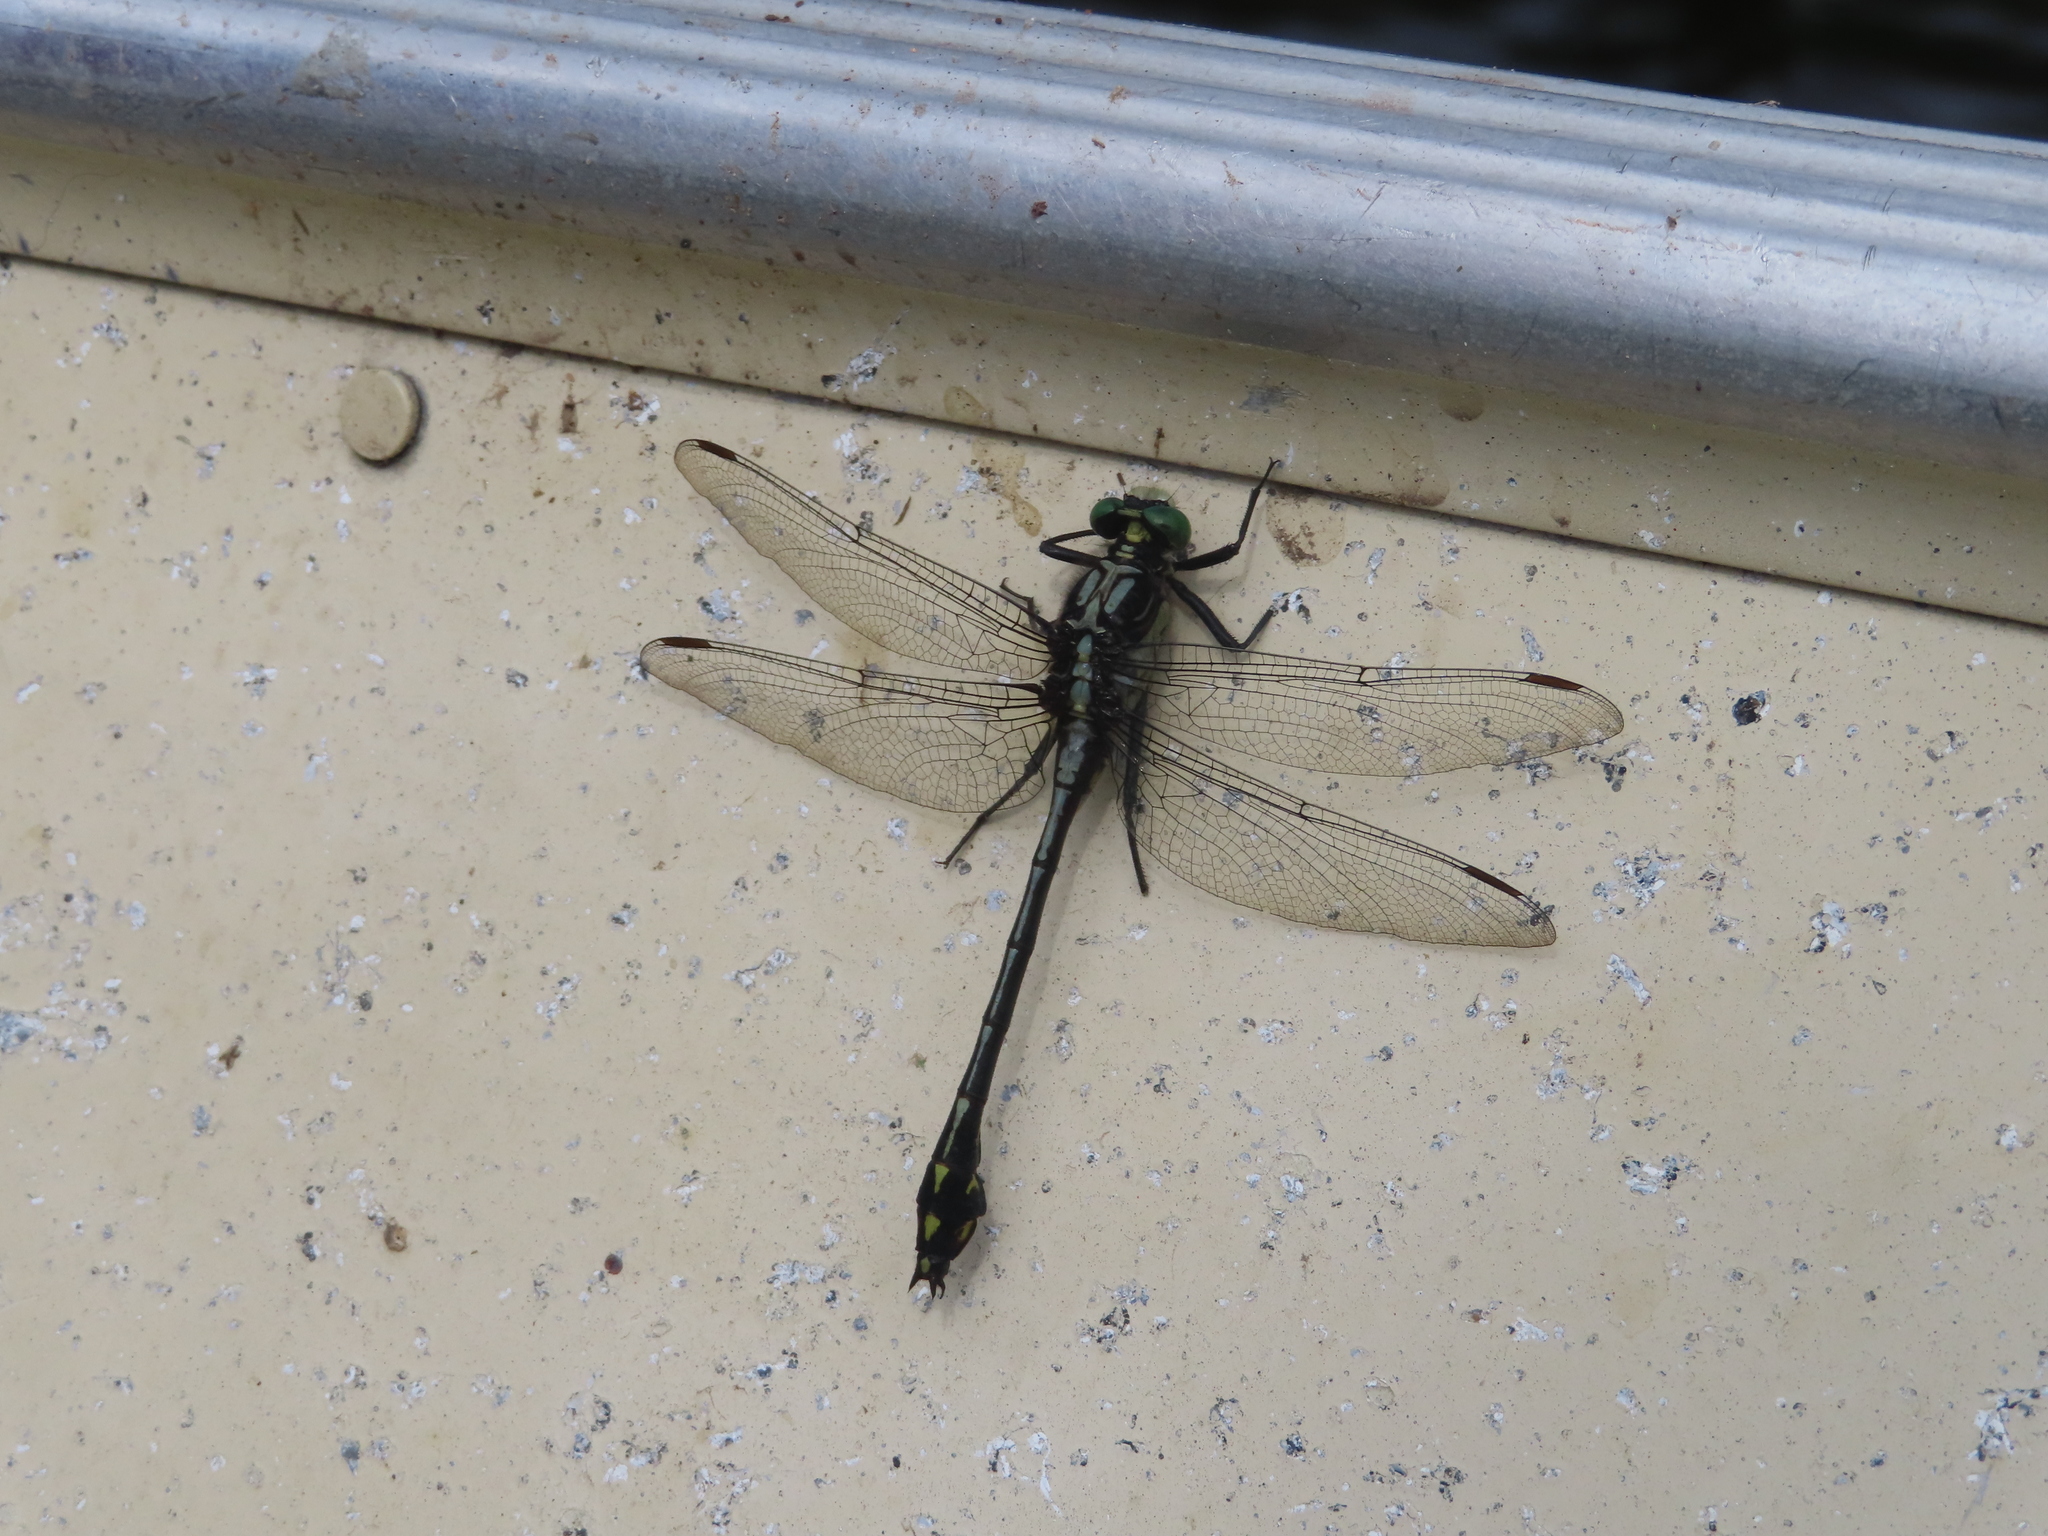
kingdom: Animalia
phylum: Arthropoda
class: Insecta
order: Odonata
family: Gomphidae
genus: Dromogomphus
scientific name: Dromogomphus spinosus
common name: Black-shouldered spinyleg
